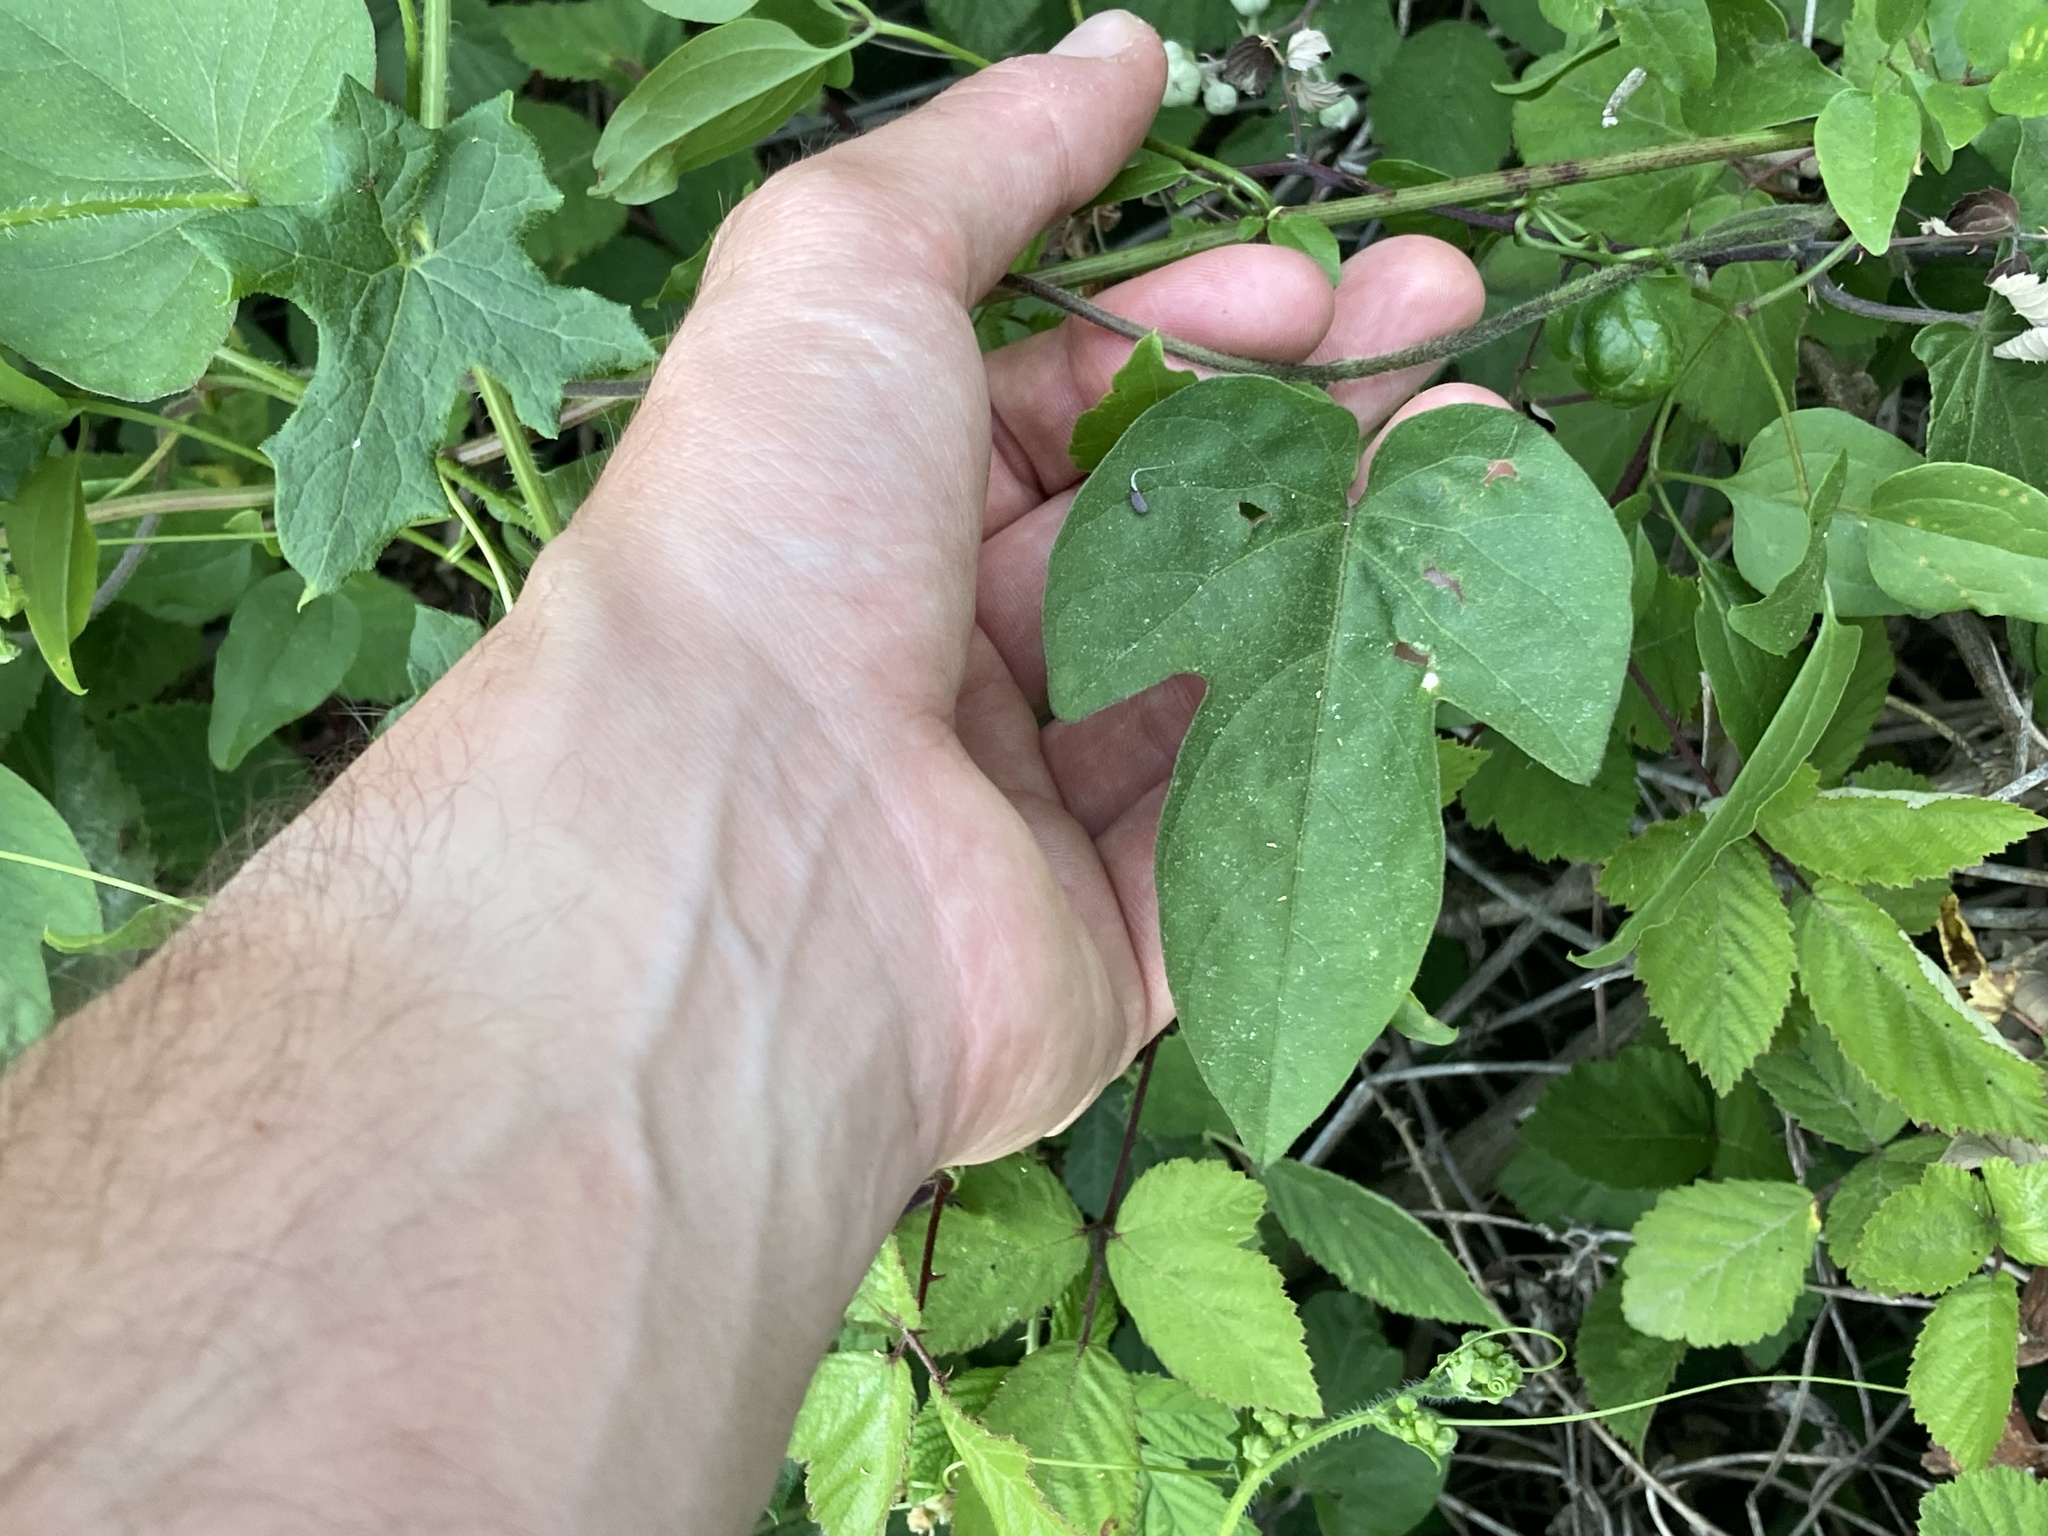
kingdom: Plantae
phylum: Tracheophyta
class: Magnoliopsida
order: Solanales
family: Convolvulaceae
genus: Ipomoea
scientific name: Ipomoea indica
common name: Blue dawnflower
